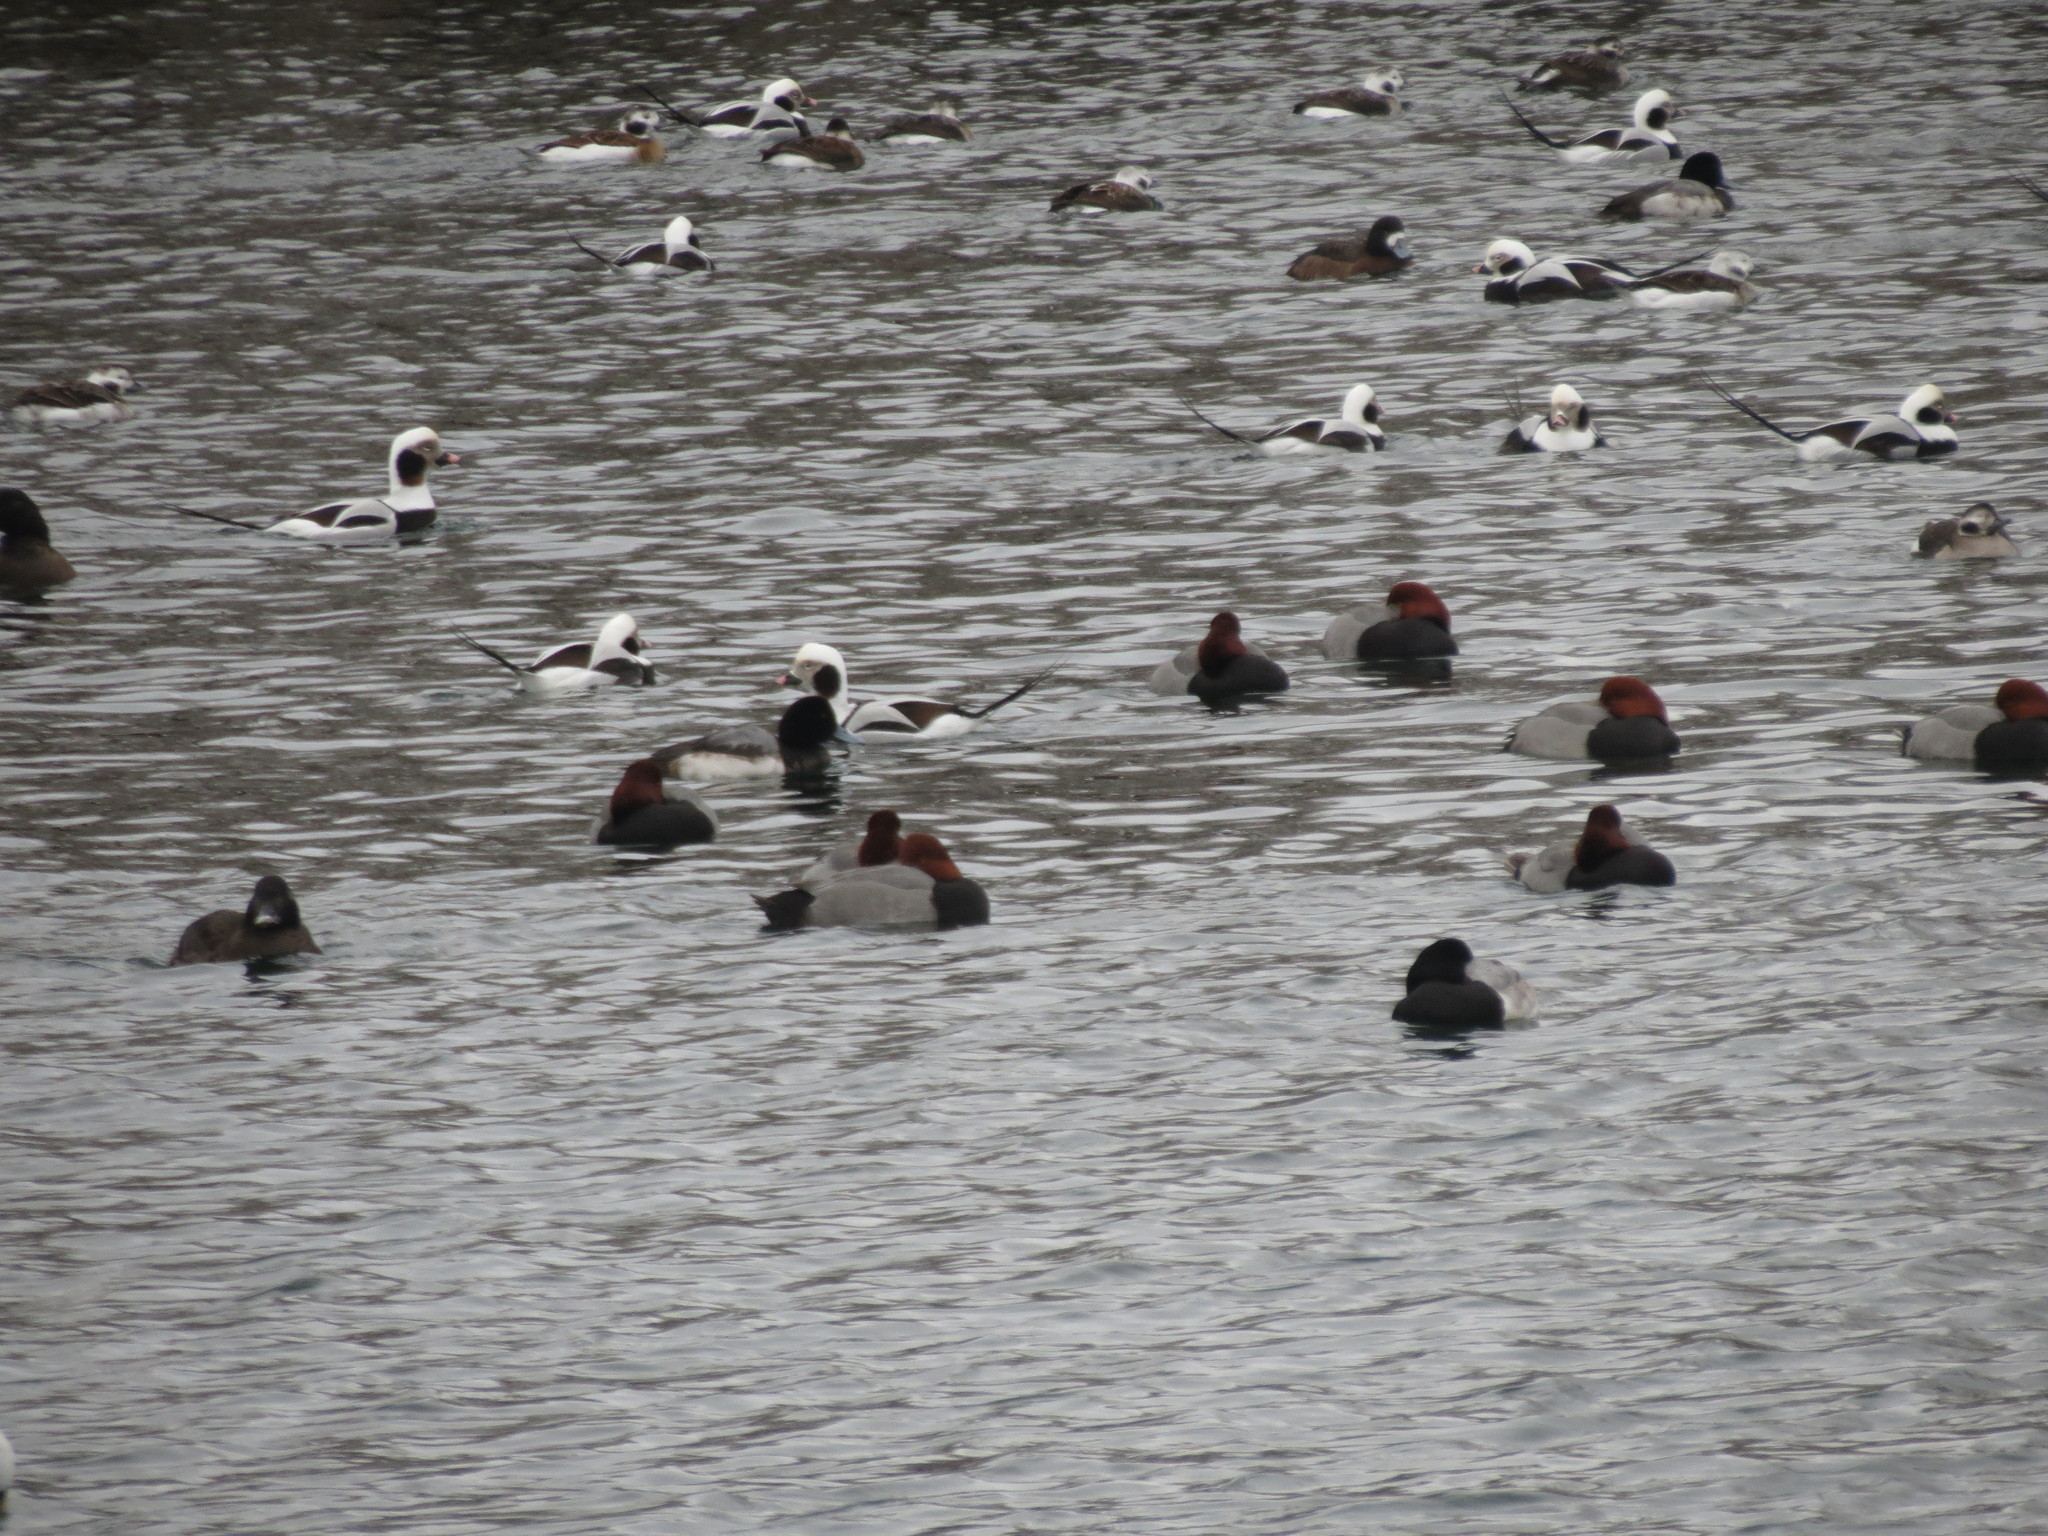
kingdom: Animalia
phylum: Chordata
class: Aves
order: Anseriformes
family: Anatidae
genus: Aythya
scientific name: Aythya americana
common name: Redhead
